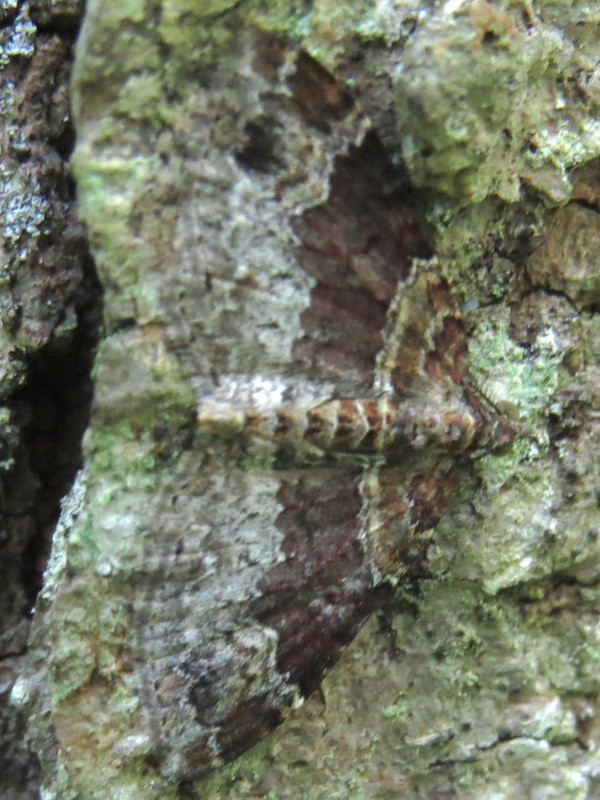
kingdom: Animalia
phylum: Arthropoda
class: Insecta
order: Lepidoptera
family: Geometridae
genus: Xanthorhoe
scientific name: Xanthorhoe ferrugata
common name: Dark-barred twin-spot carpet
